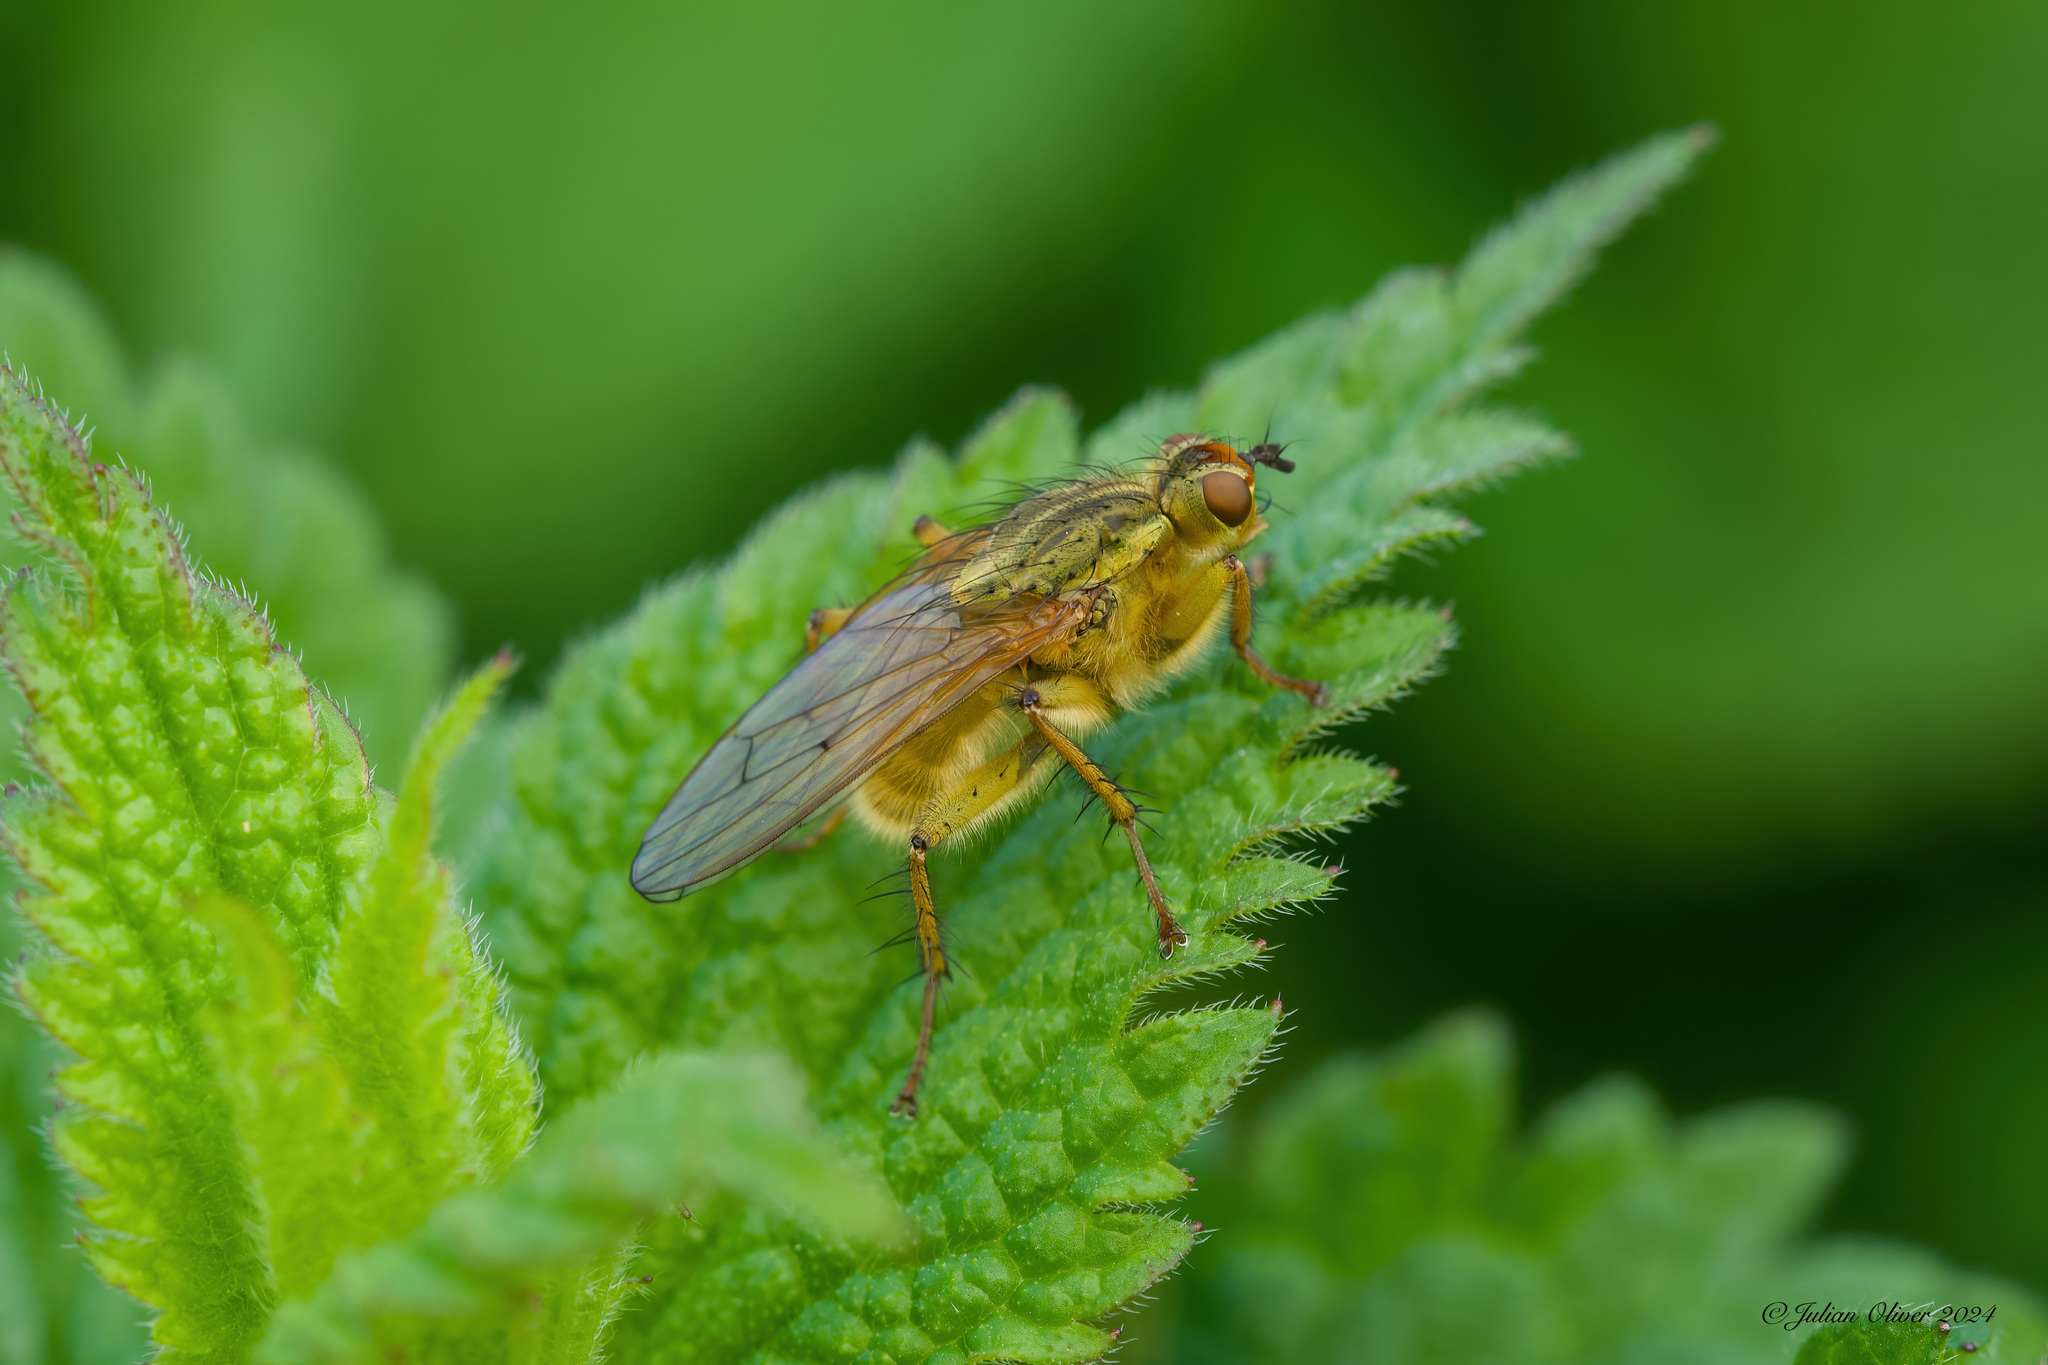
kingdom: Animalia
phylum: Arthropoda
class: Insecta
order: Diptera
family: Scathophagidae
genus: Scathophaga
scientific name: Scathophaga stercoraria
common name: Yellow dung fly
